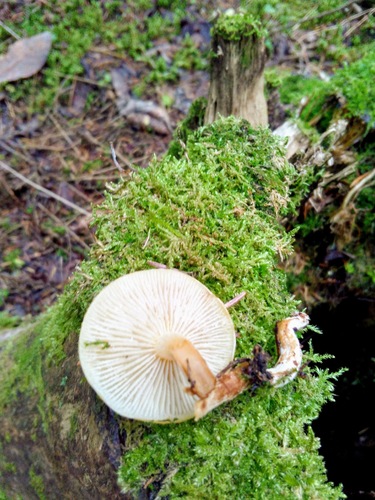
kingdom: Fungi
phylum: Basidiomycota
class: Agaricomycetes
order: Agaricales
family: Tricholomataceae
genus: Clitocybe
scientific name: Clitocybe
